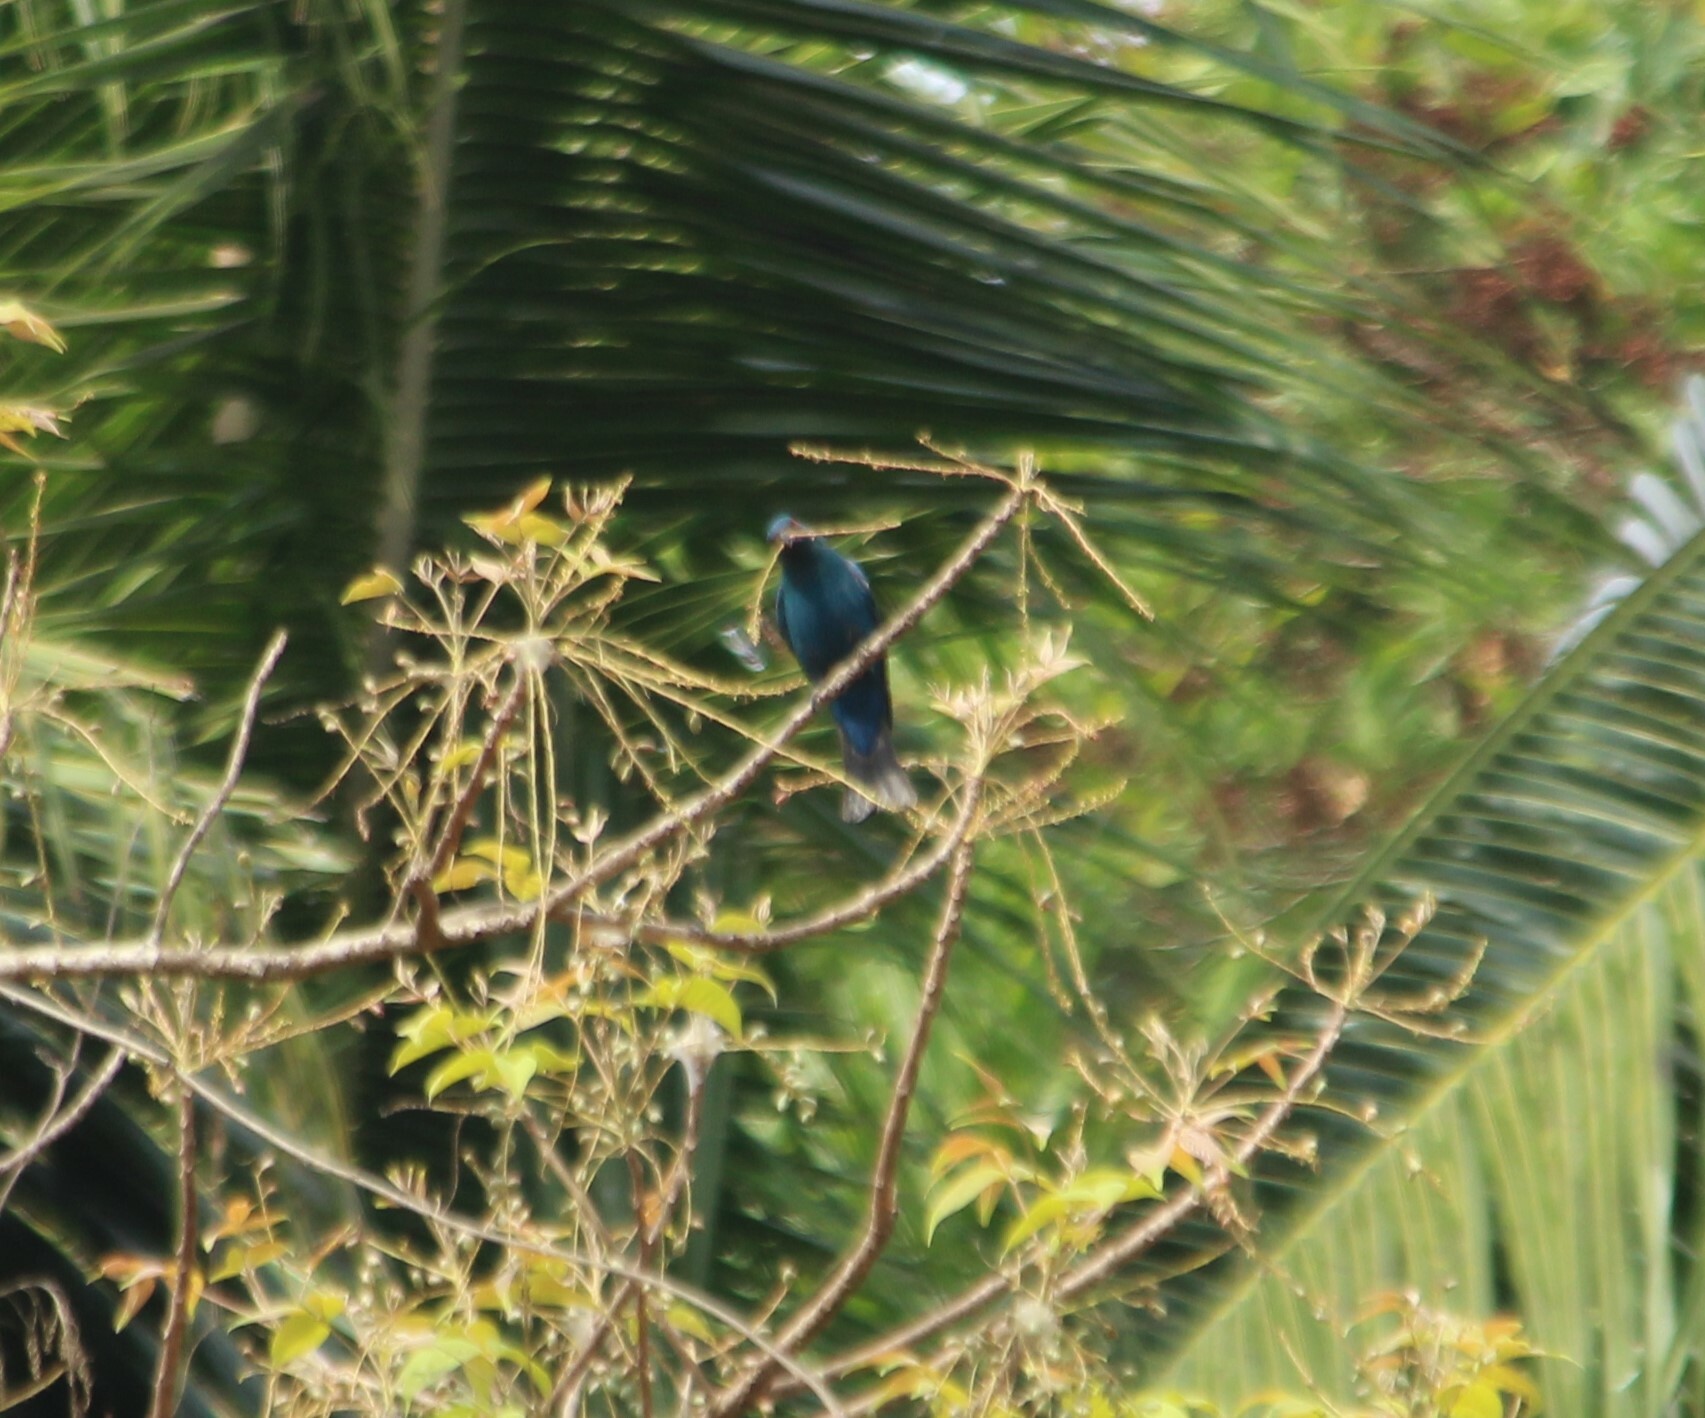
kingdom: Animalia
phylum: Chordata
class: Aves
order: Passeriformes
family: Irenidae
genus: Irena
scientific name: Irena puella
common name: Asian fairy-bluebird
